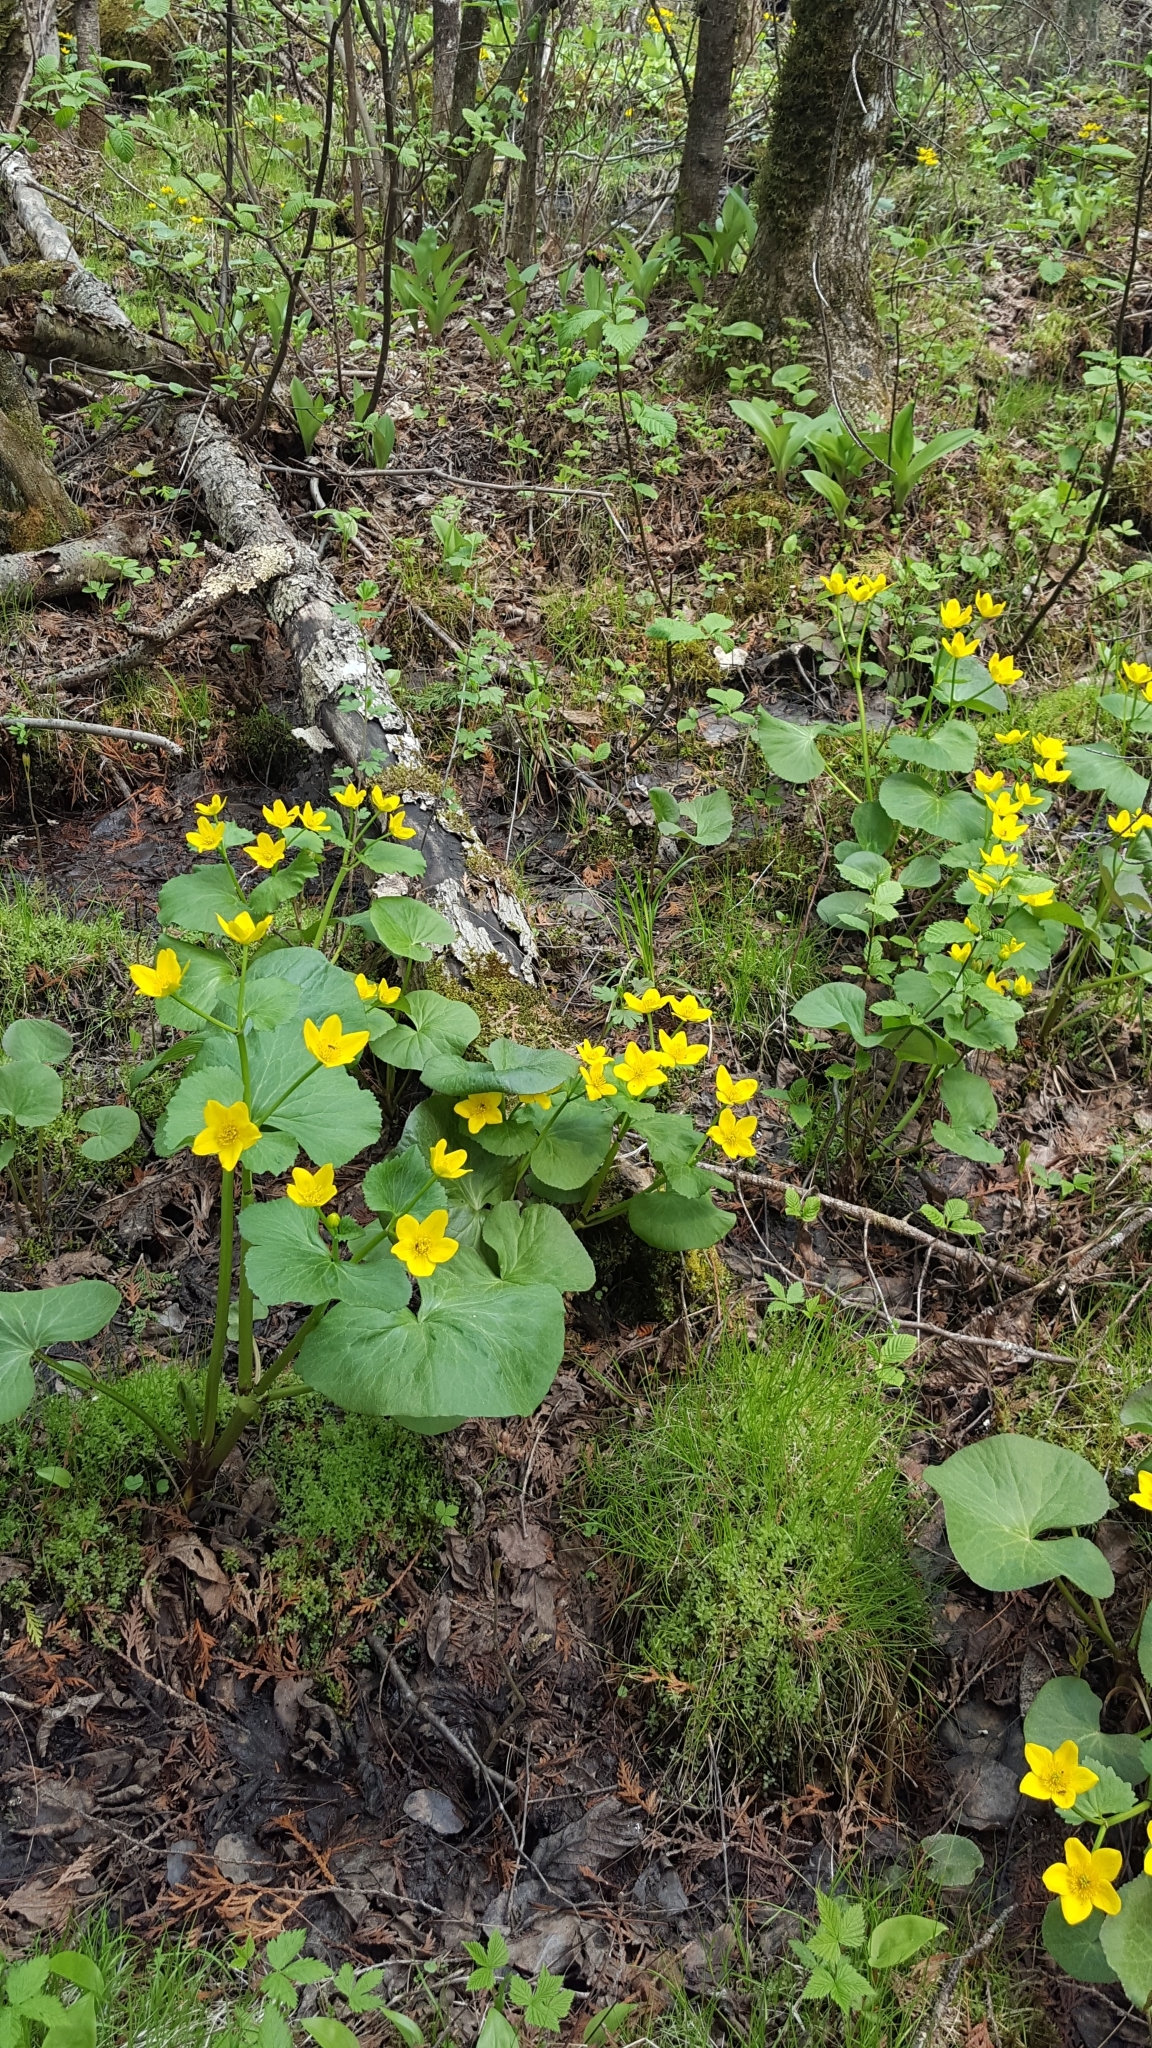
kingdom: Plantae
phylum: Tracheophyta
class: Magnoliopsida
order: Ranunculales
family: Ranunculaceae
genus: Caltha
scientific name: Caltha palustris
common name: Marsh marigold
